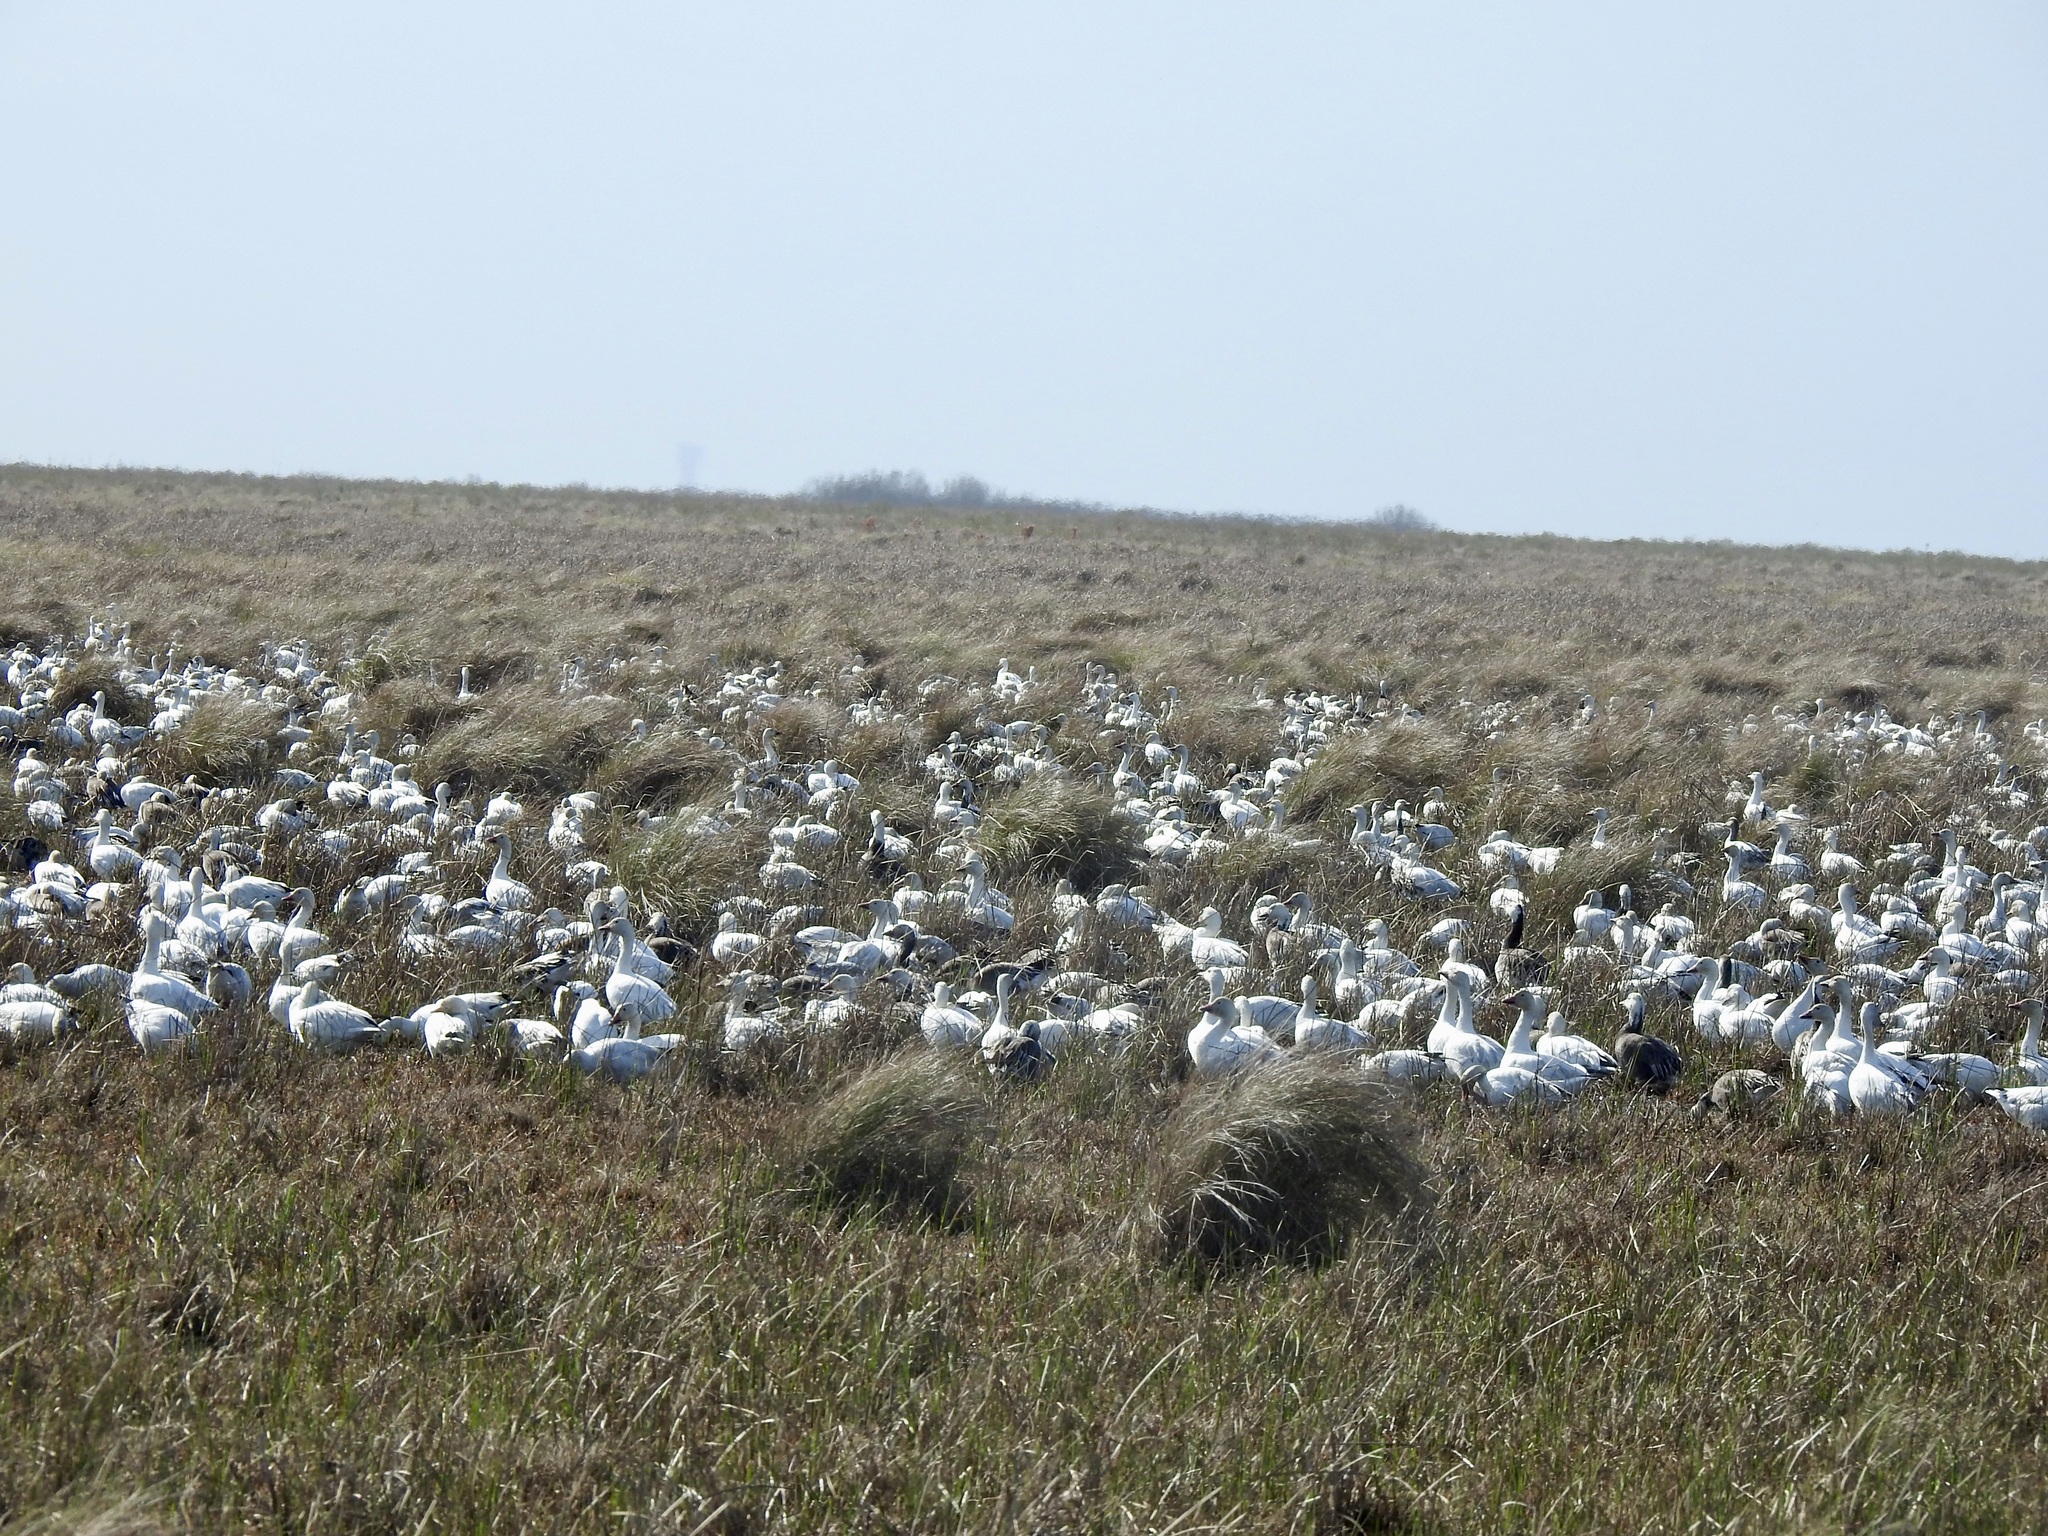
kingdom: Animalia
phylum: Chordata
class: Aves
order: Anseriformes
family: Anatidae
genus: Anser
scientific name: Anser caerulescens
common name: Snow goose
